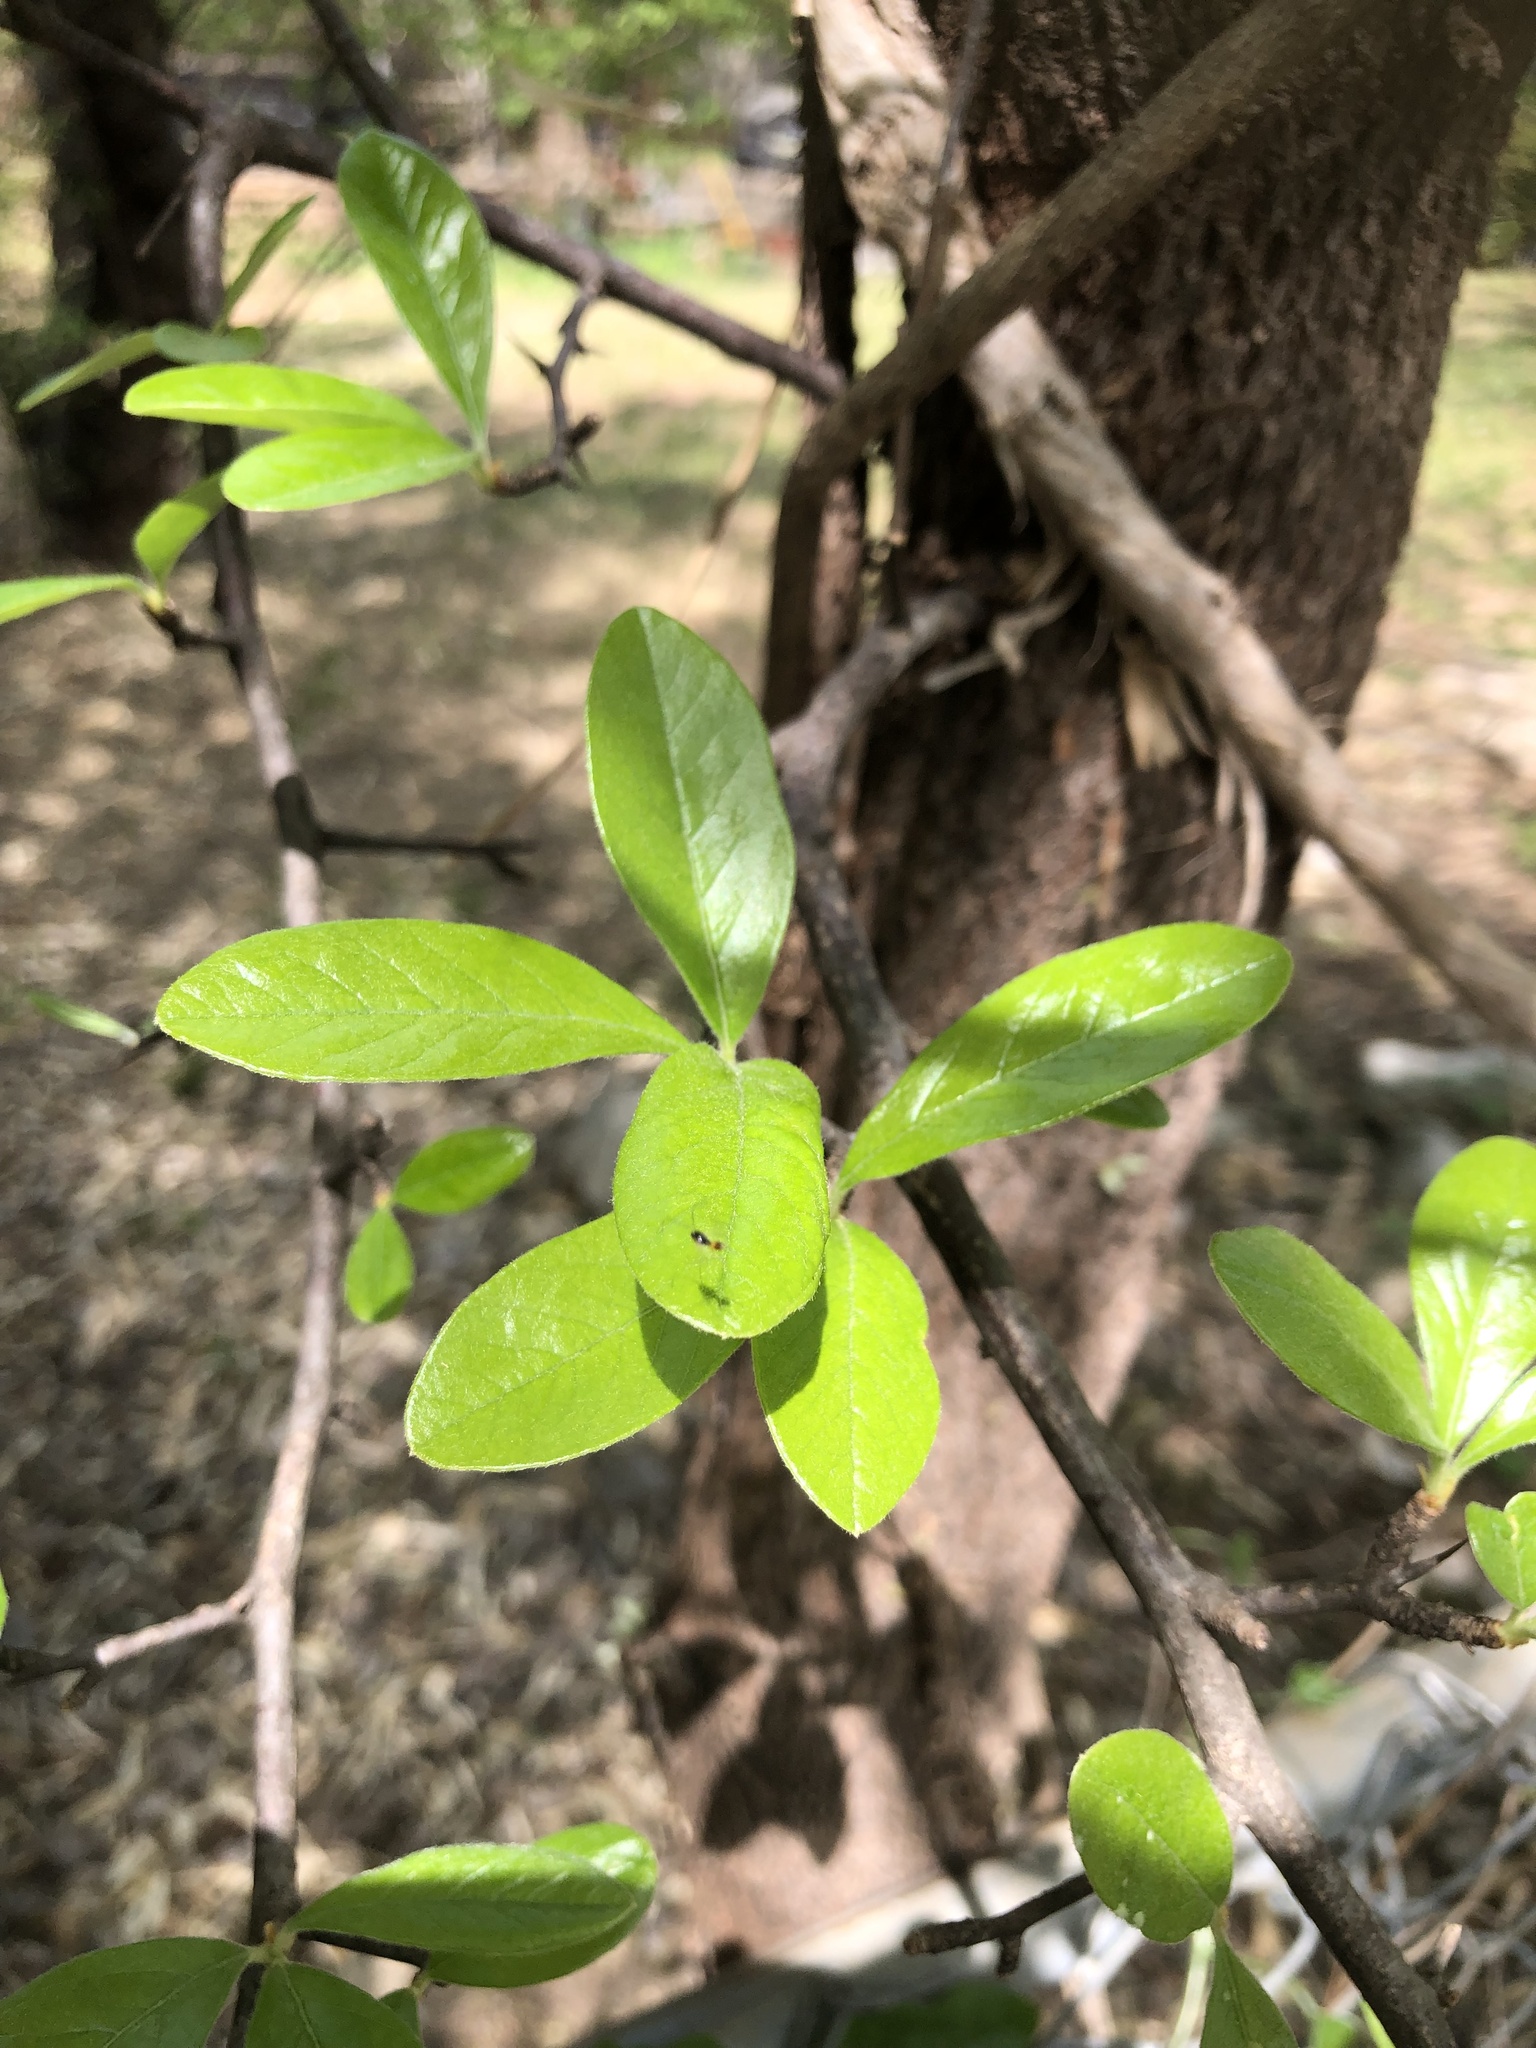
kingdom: Plantae
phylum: Tracheophyta
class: Magnoliopsida
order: Ericales
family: Sapotaceae
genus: Sideroxylon
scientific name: Sideroxylon lanuginosum
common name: Chittamwood
